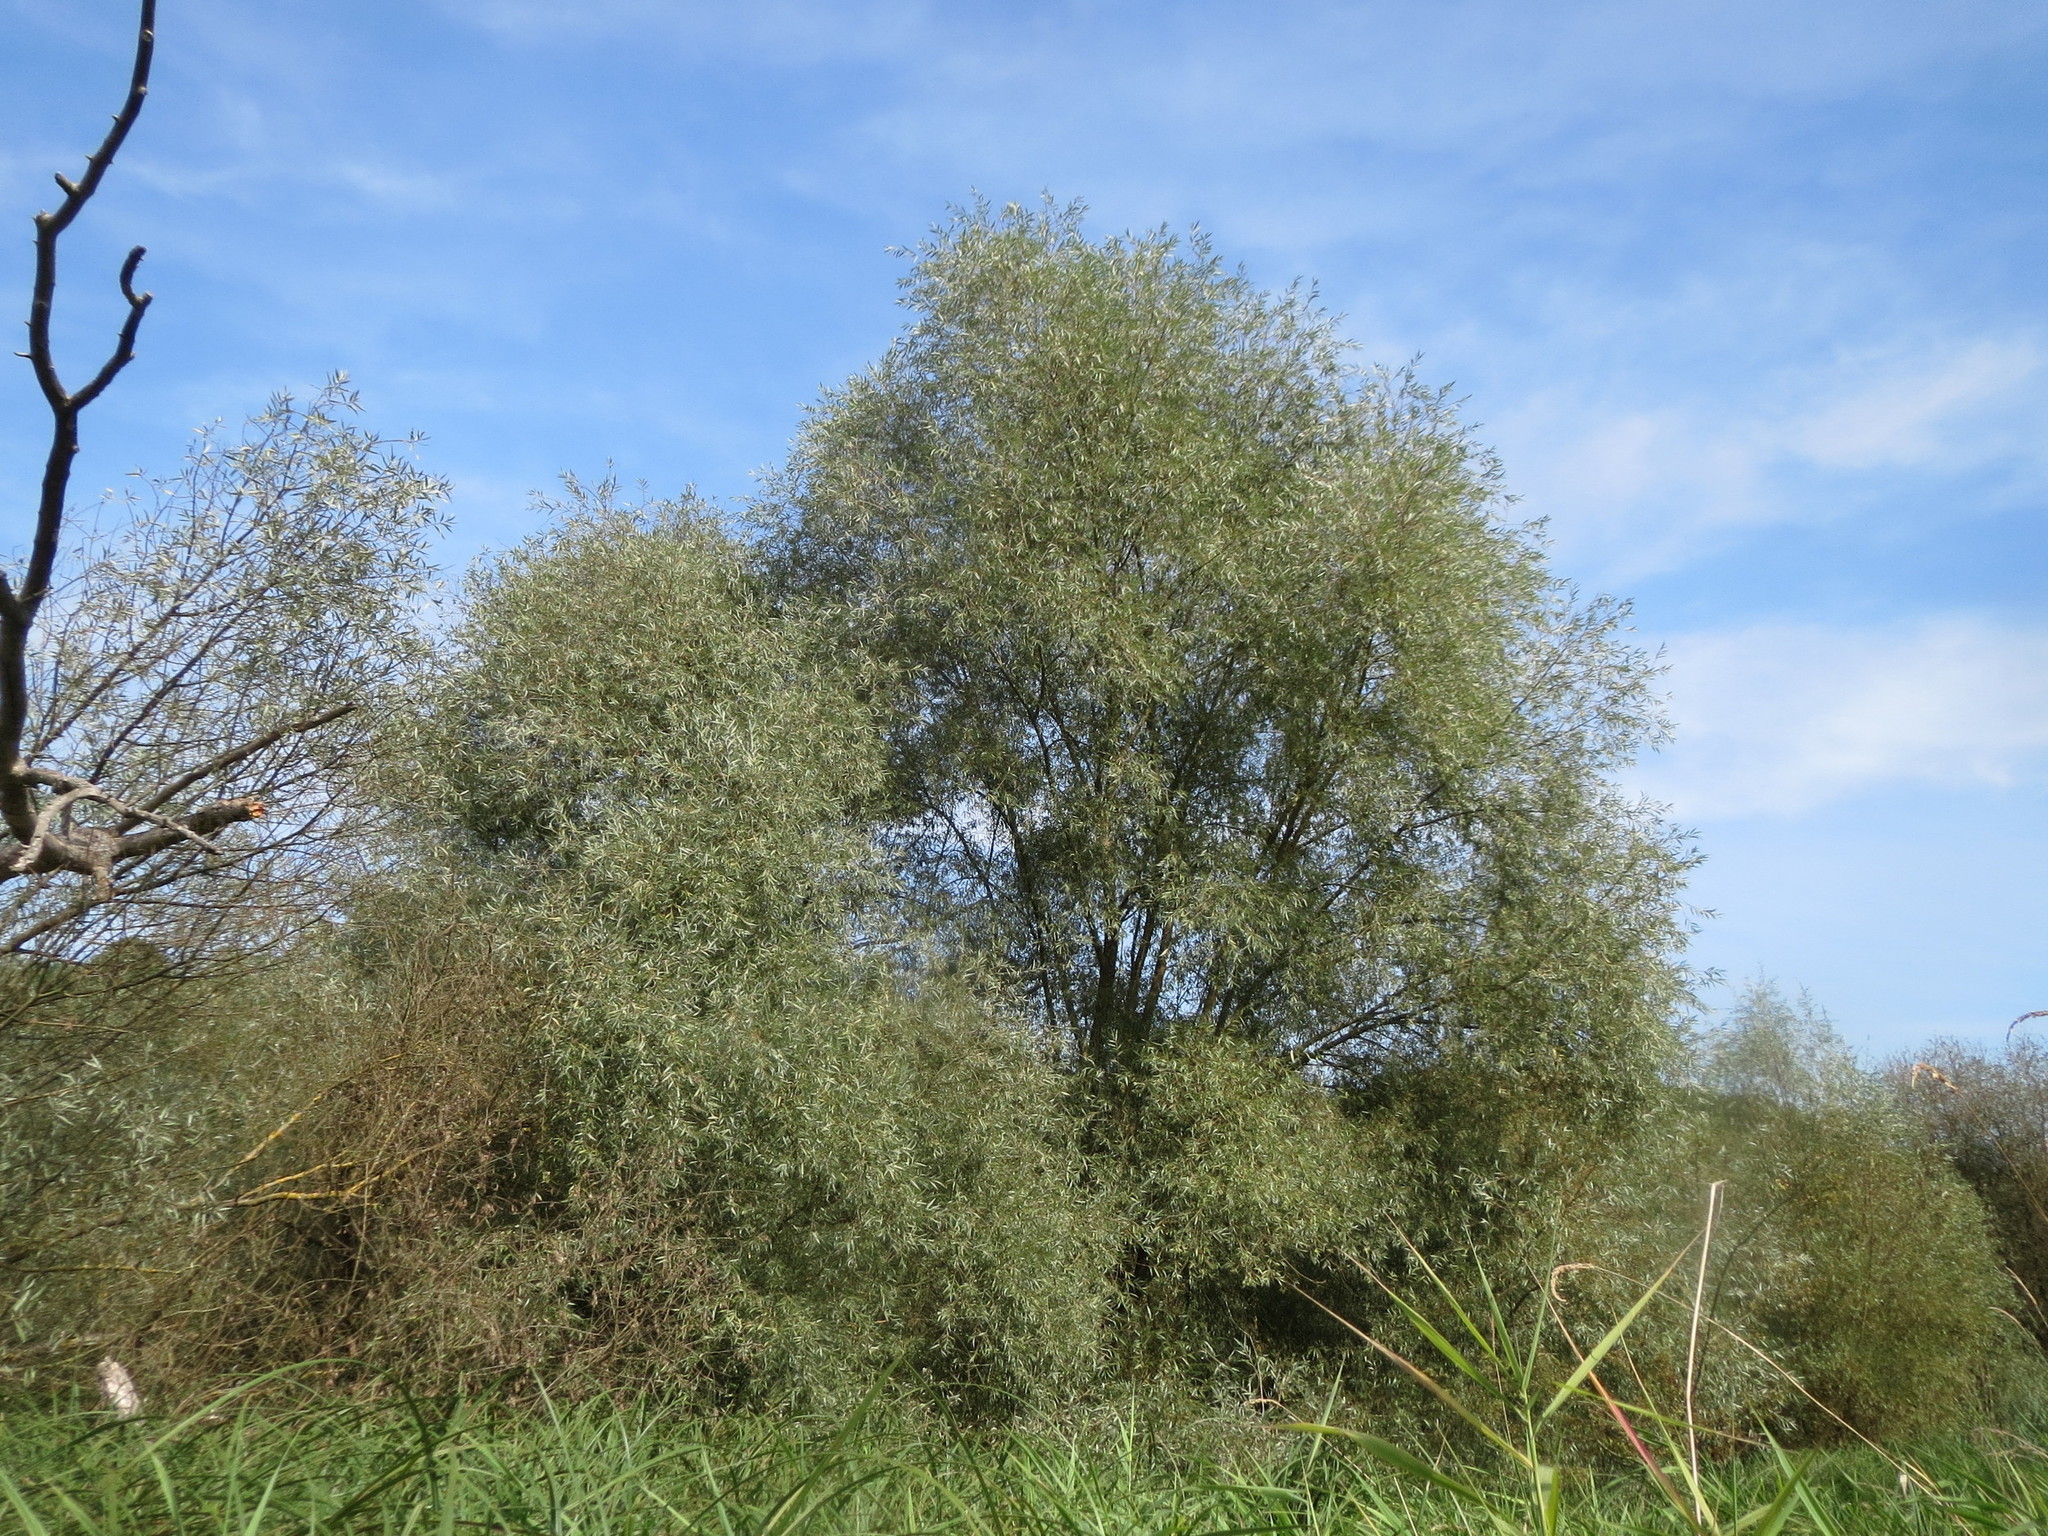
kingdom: Plantae
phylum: Tracheophyta
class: Magnoliopsida
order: Malpighiales
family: Salicaceae
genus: Salix
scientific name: Salix alba
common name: White willow
